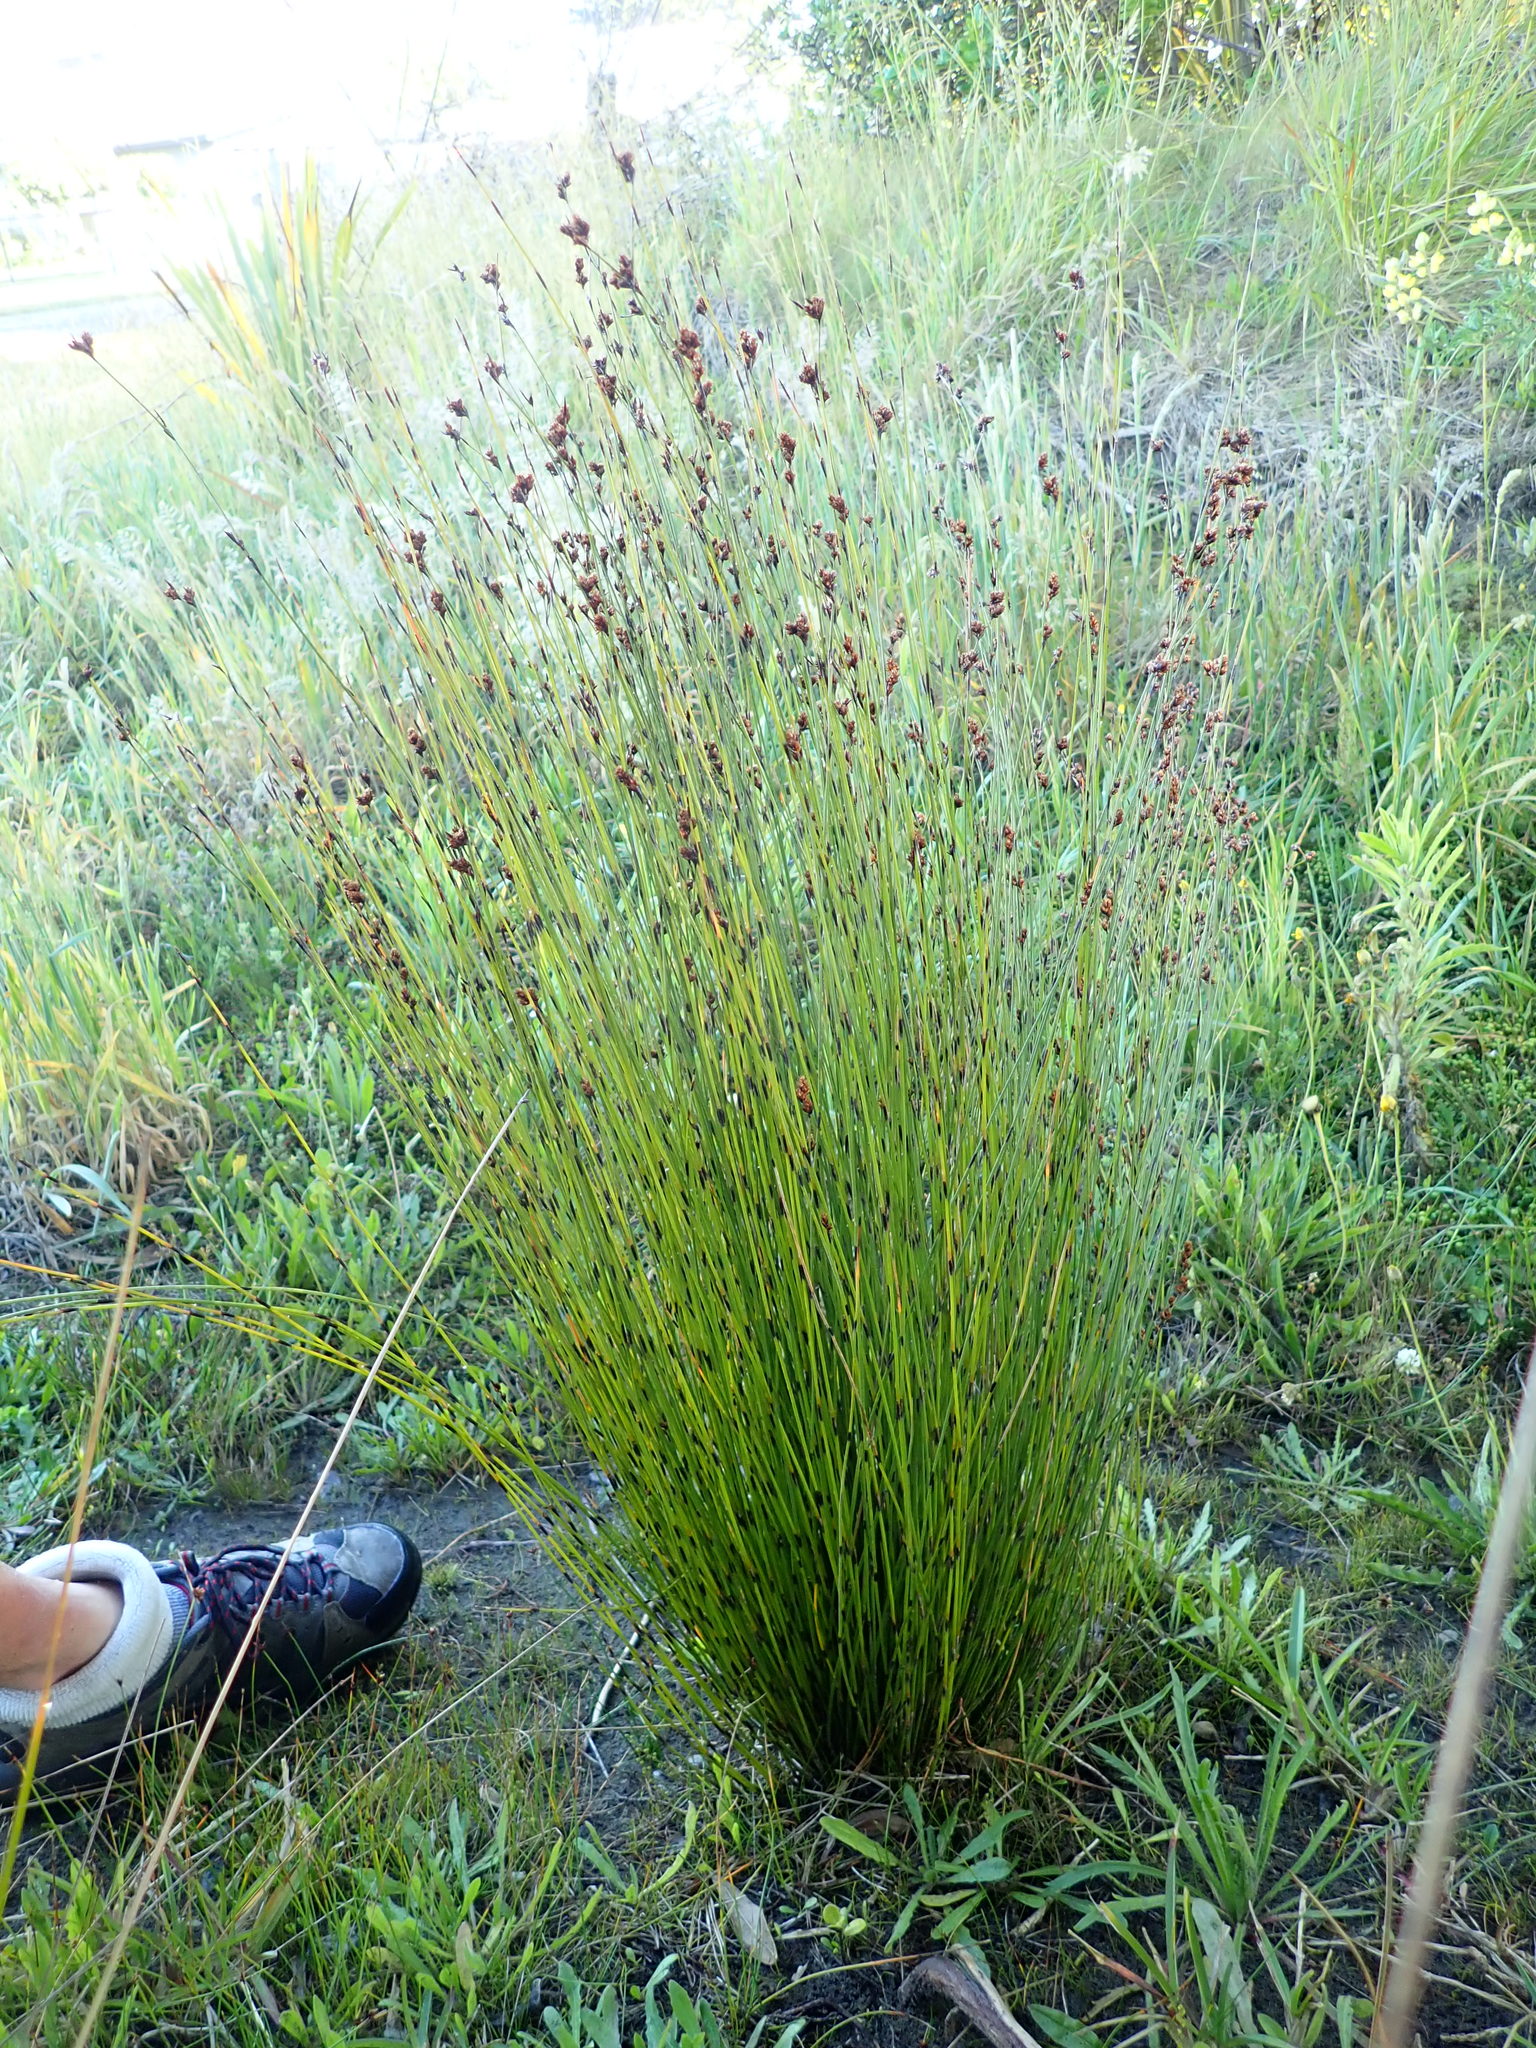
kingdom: Plantae
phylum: Tracheophyta
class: Liliopsida
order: Poales
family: Restionaceae
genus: Apodasmia
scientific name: Apodasmia similis
